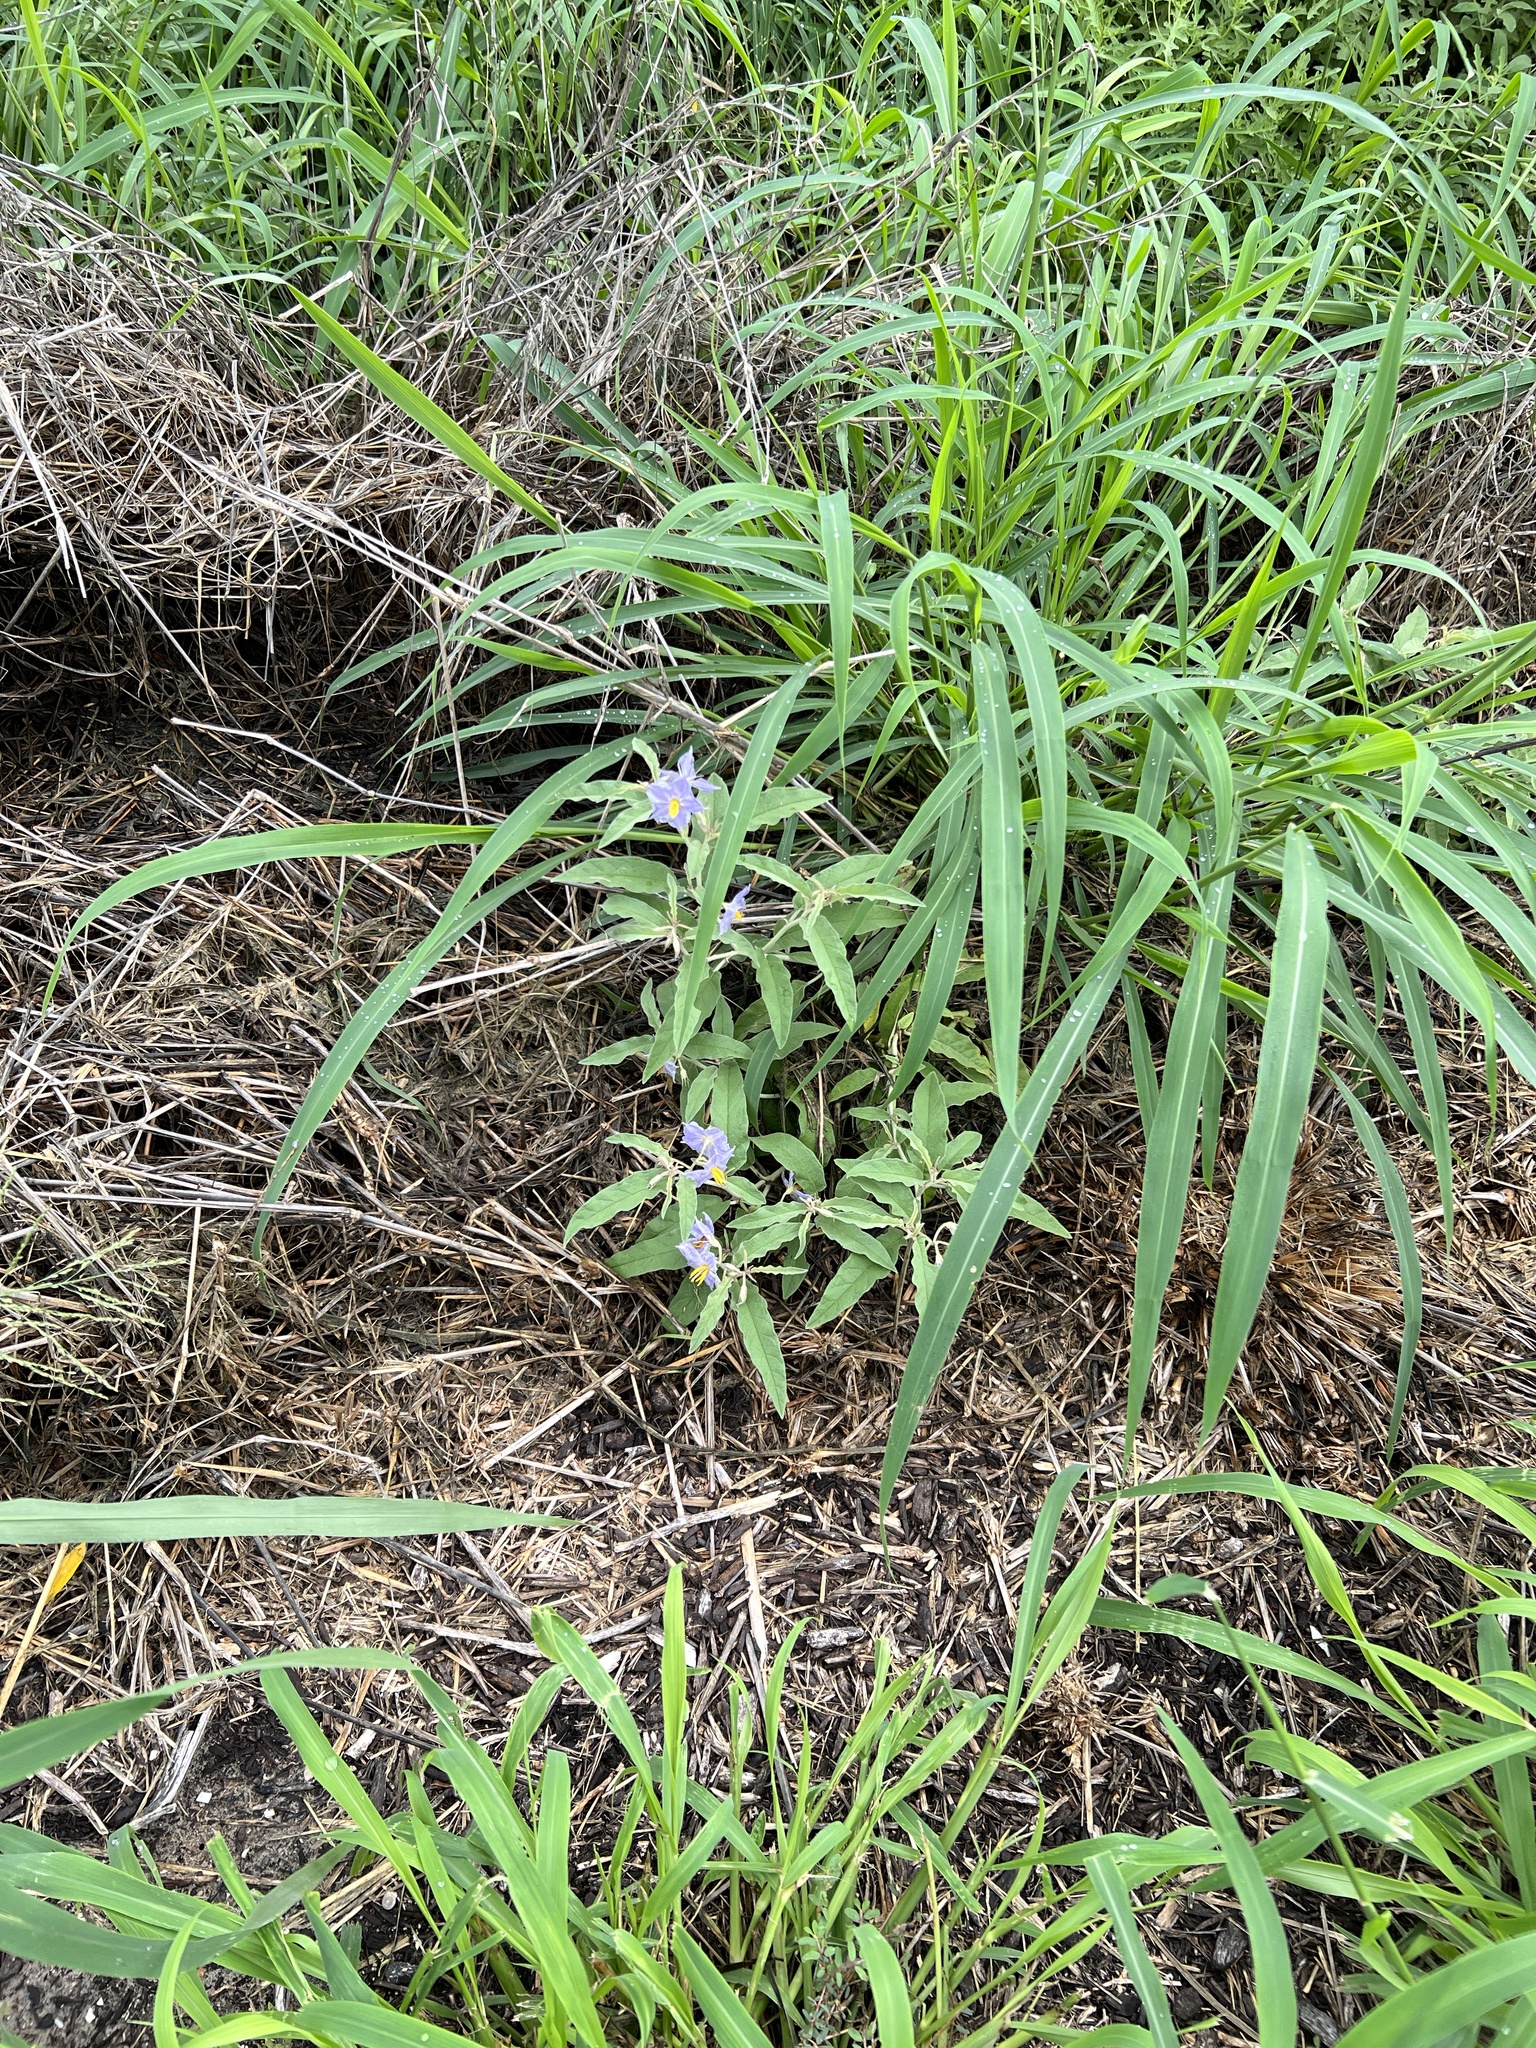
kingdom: Plantae
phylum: Tracheophyta
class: Magnoliopsida
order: Solanales
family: Solanaceae
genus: Solanum
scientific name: Solanum elaeagnifolium
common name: Silverleaf nightshade
